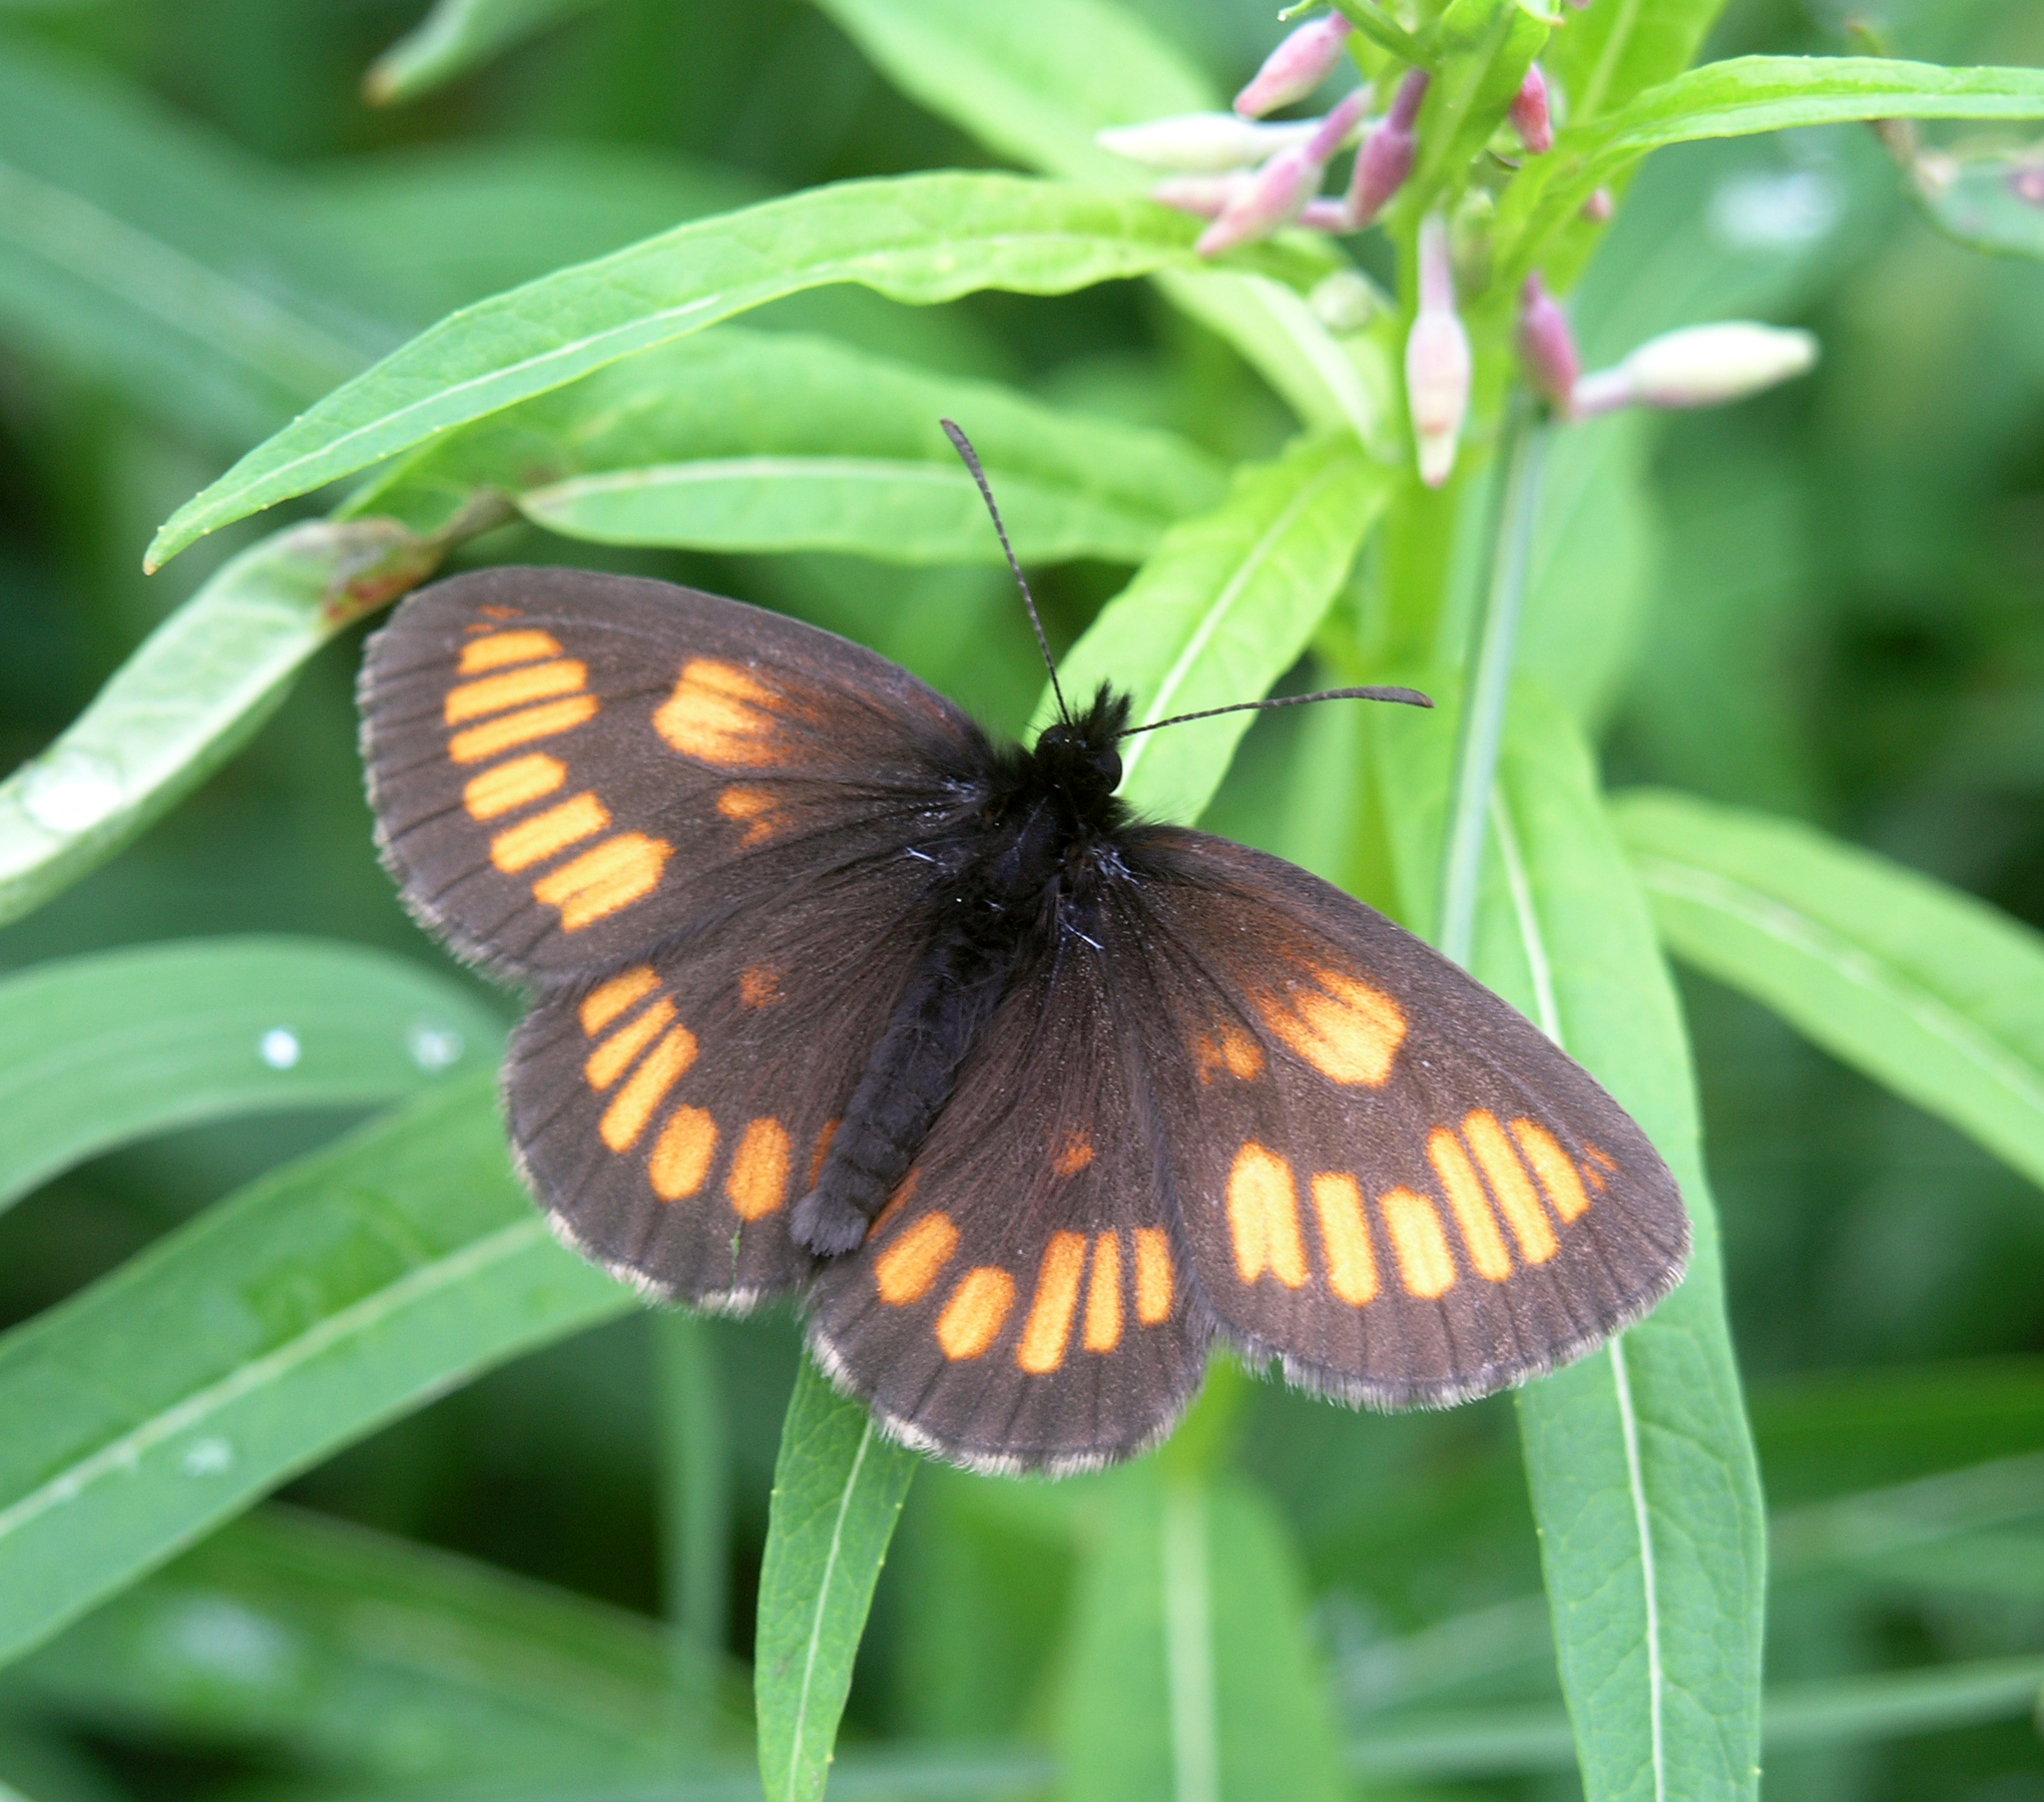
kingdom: Plantae
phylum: Tracheophyta
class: Magnoliopsida
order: Myrtales
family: Onagraceae
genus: Chamaenerion
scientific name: Chamaenerion angustifolium
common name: Fireweed
